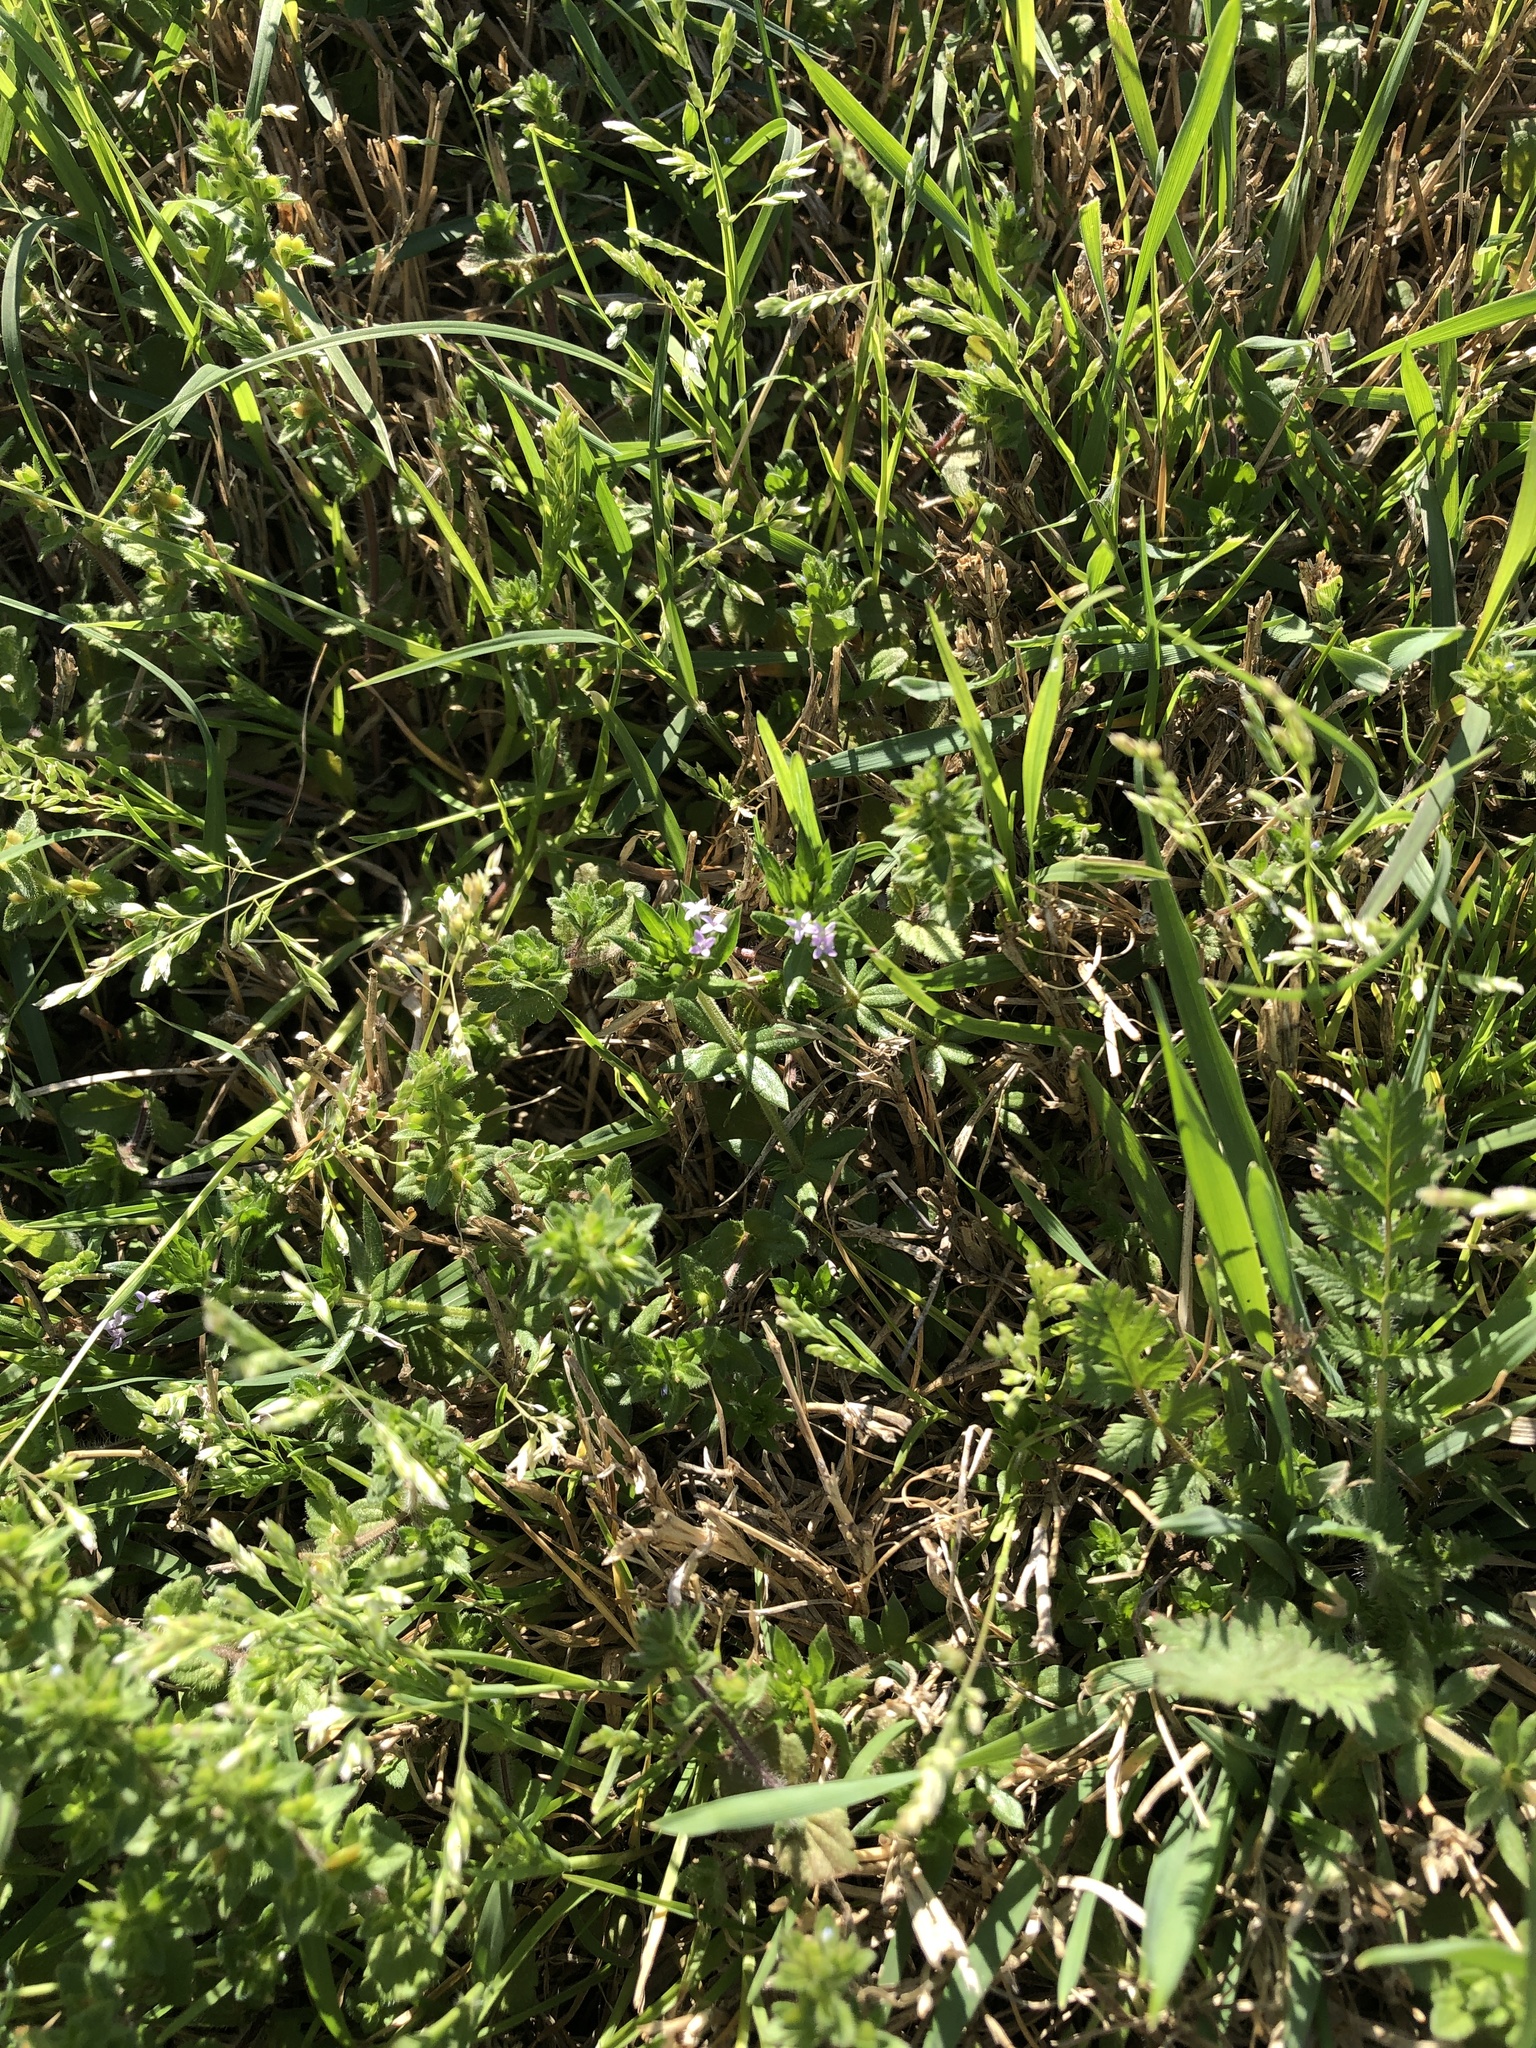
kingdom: Plantae
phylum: Tracheophyta
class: Magnoliopsida
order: Gentianales
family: Rubiaceae
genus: Sherardia
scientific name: Sherardia arvensis
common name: Field madder
